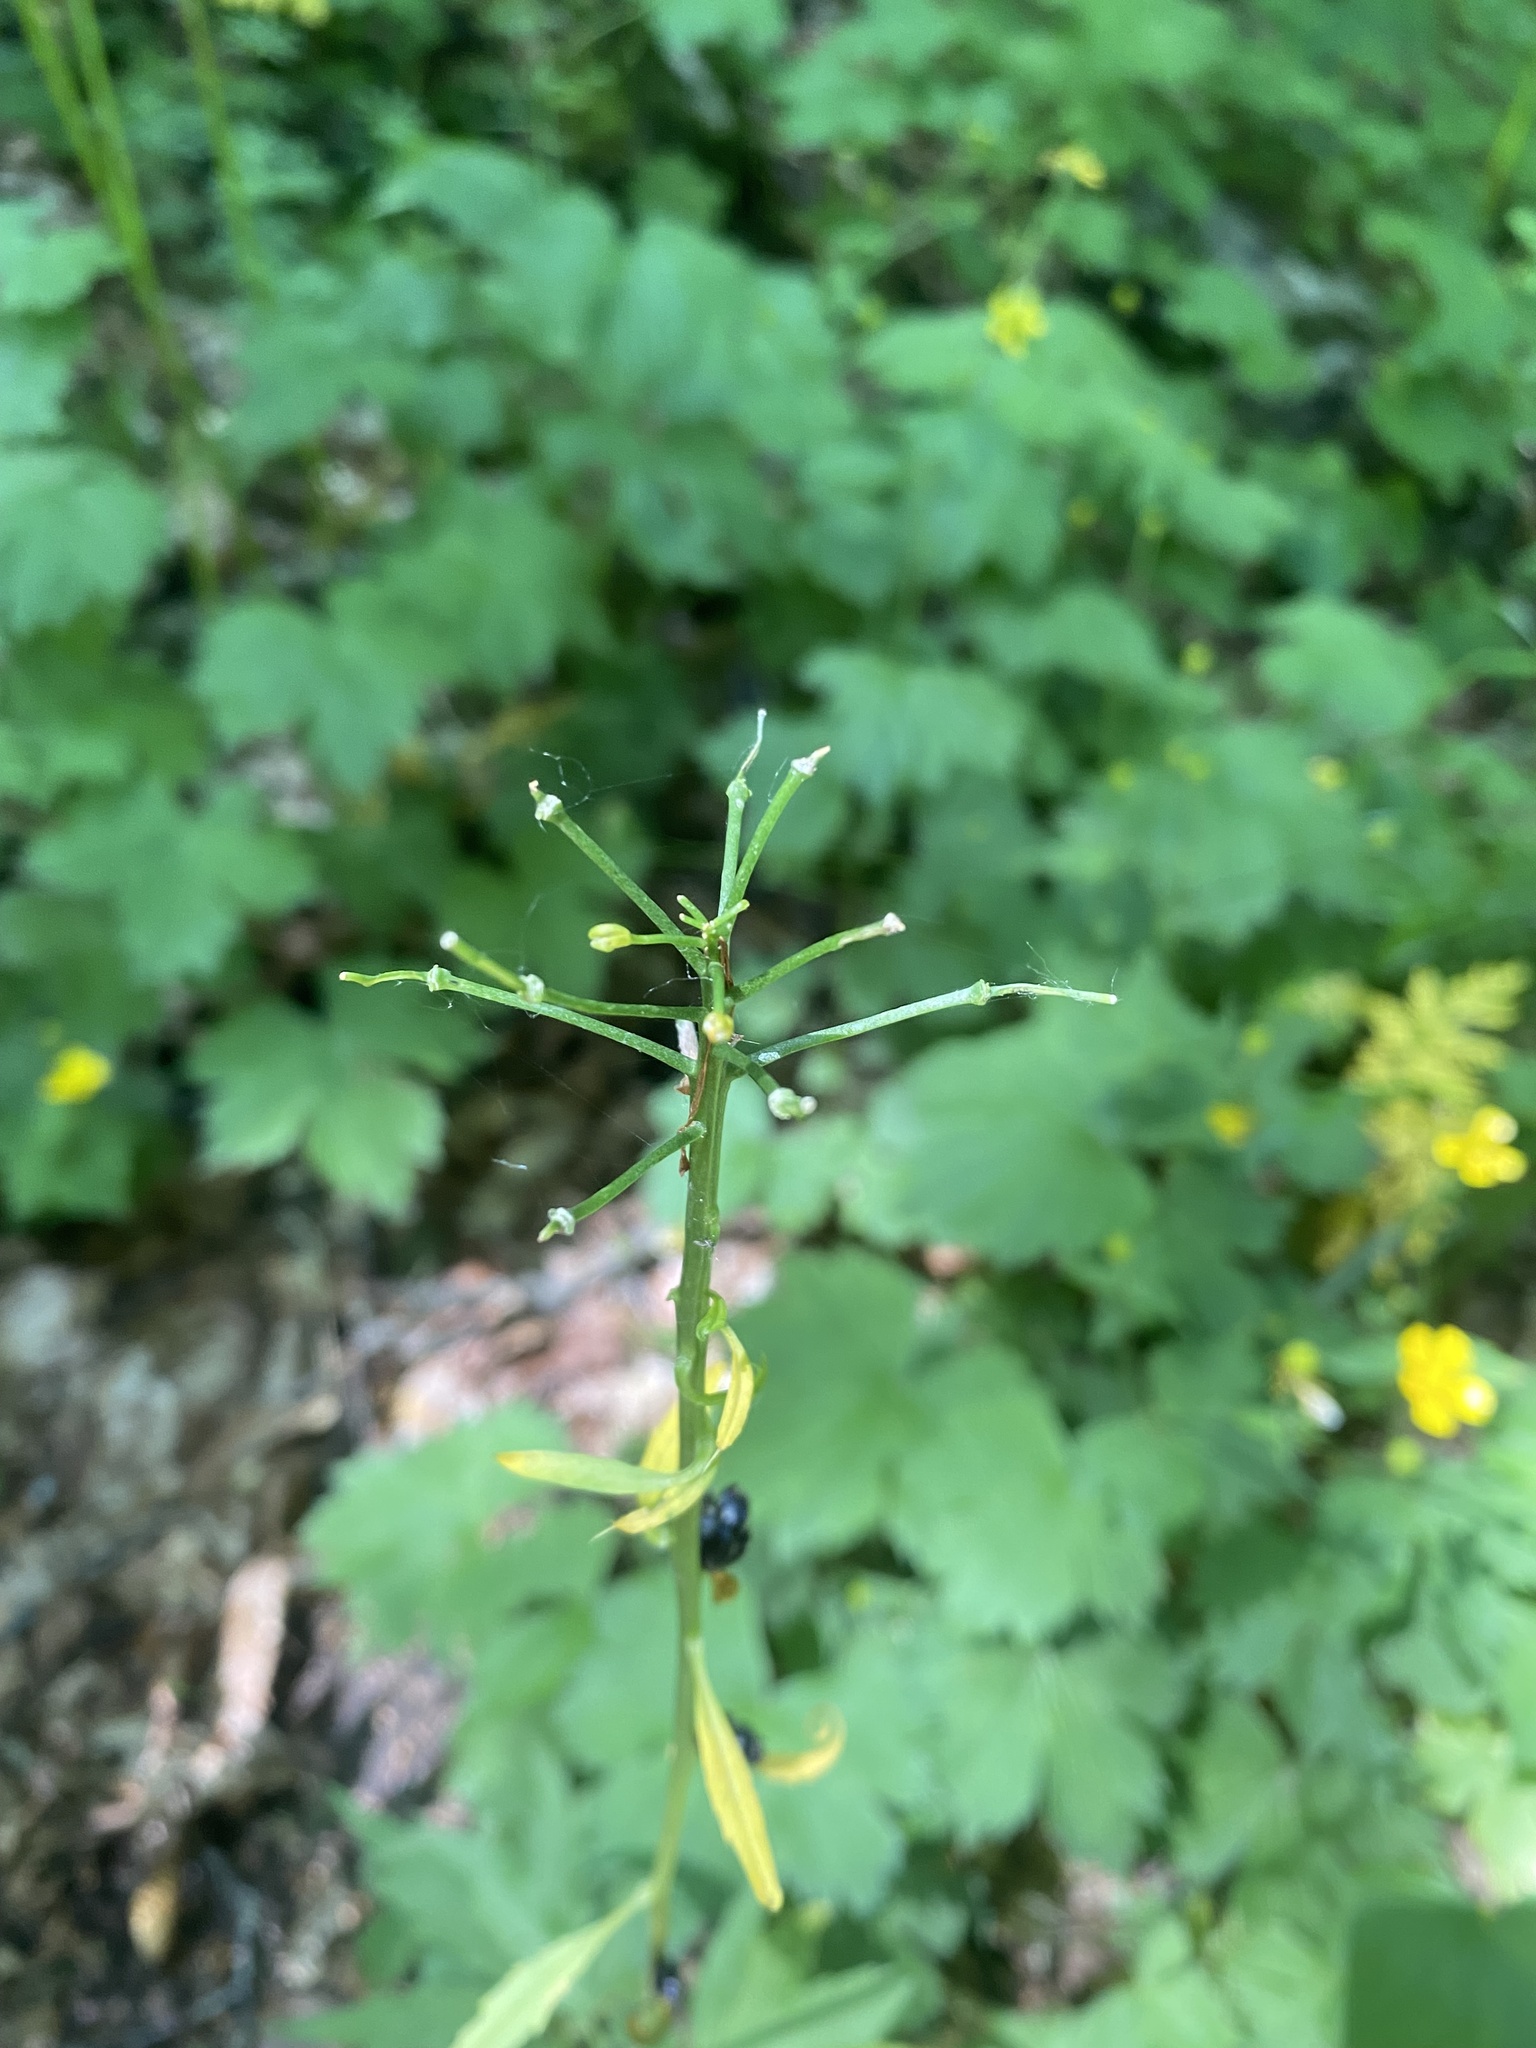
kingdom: Plantae
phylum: Tracheophyta
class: Magnoliopsida
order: Brassicales
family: Brassicaceae
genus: Cardamine
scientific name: Cardamine bulbifera
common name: Coralroot bittercress
